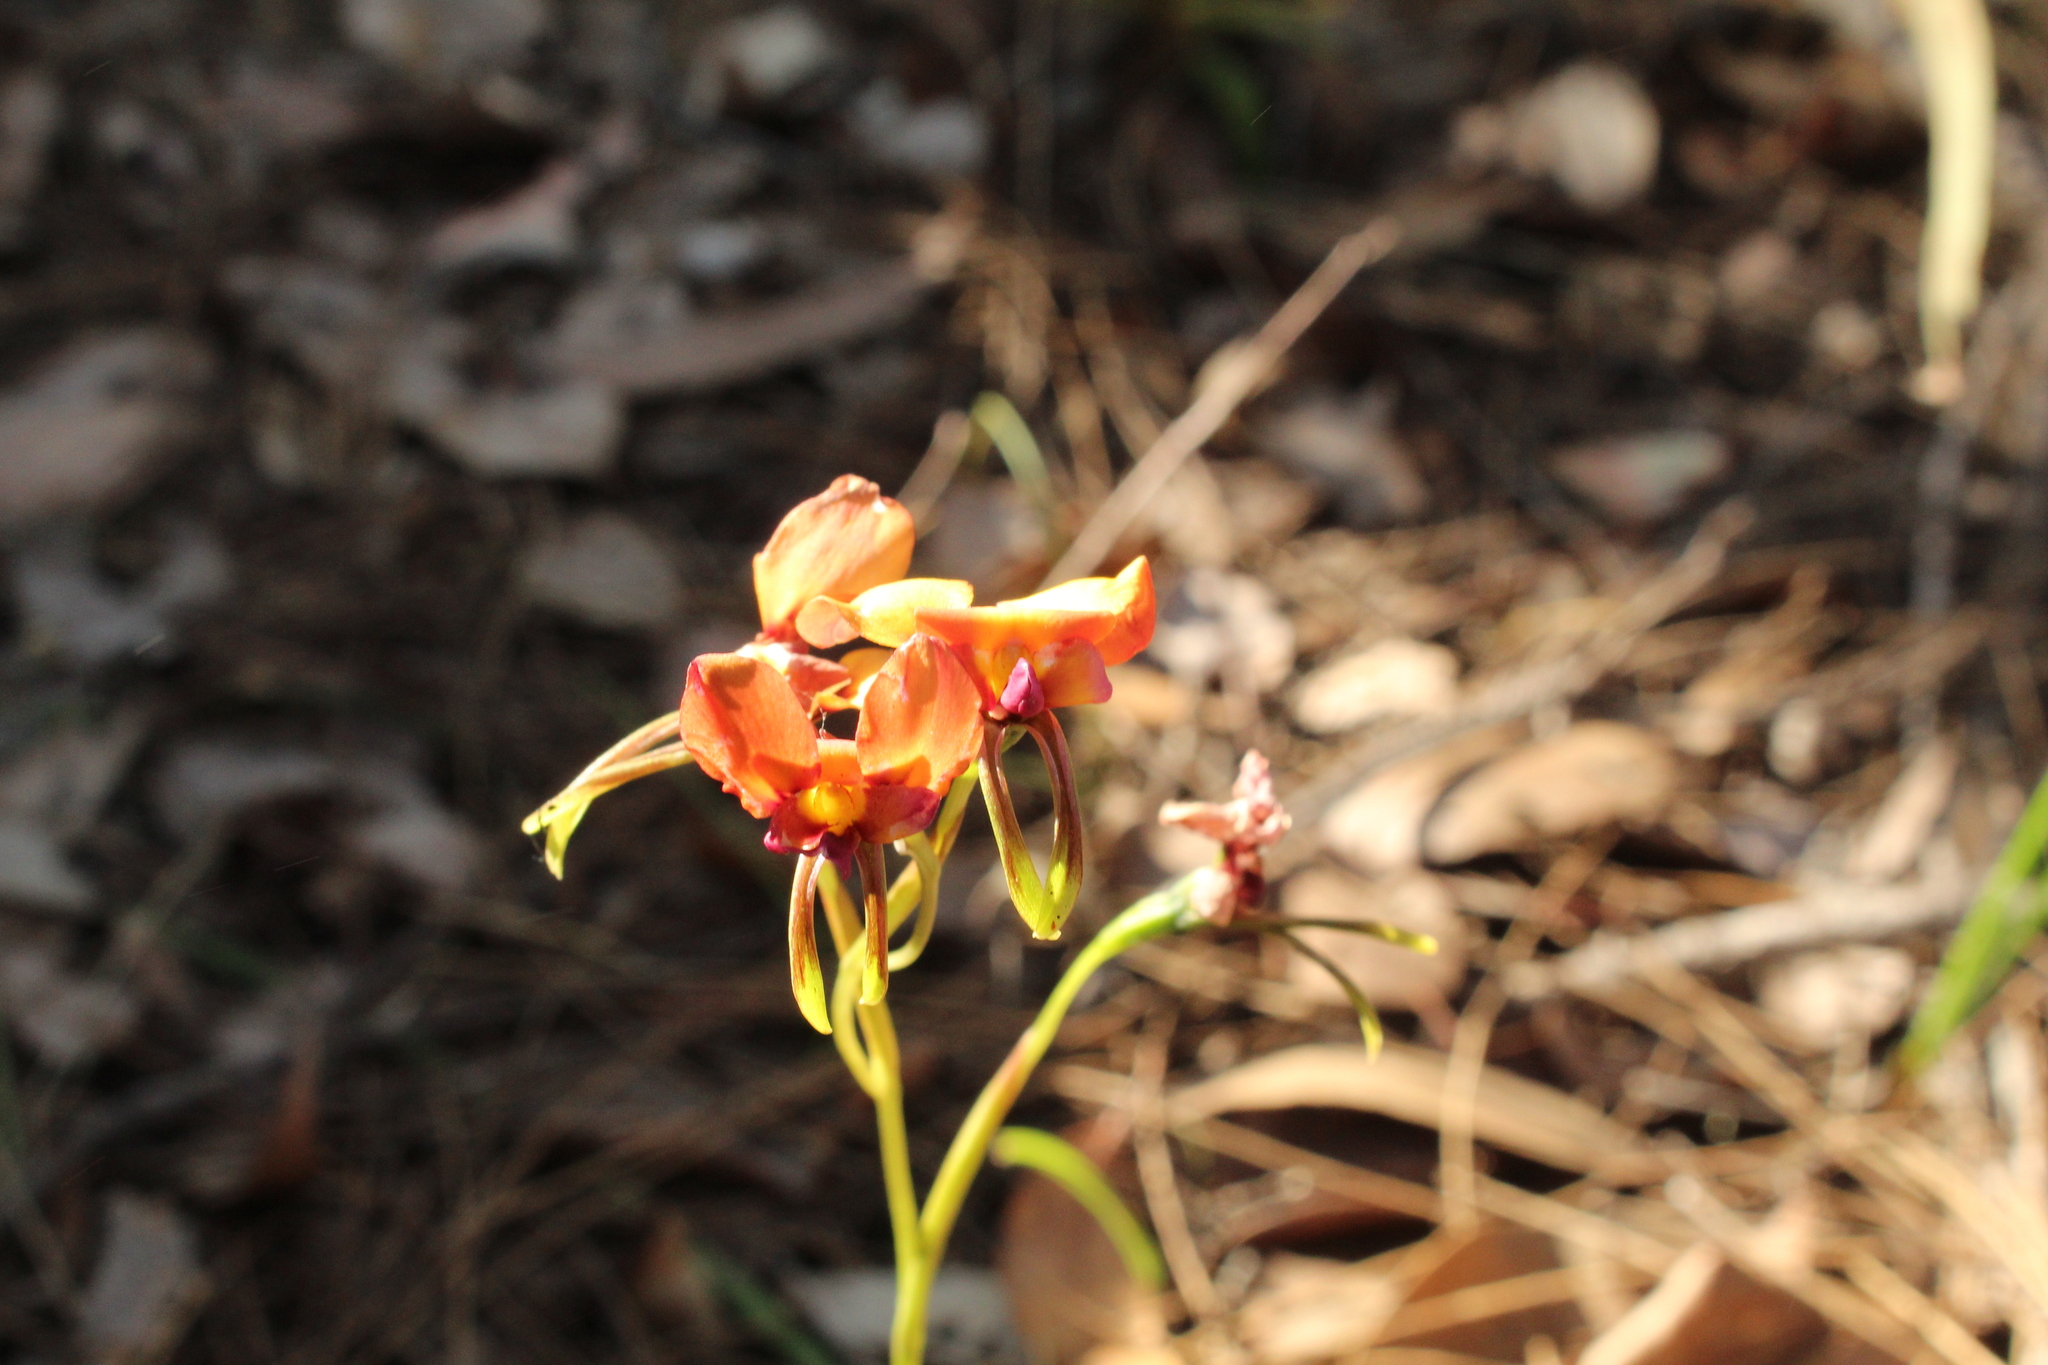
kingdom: Plantae
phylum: Tracheophyta
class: Liliopsida
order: Asparagales
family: Orchidaceae
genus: Diuris
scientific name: Diuris longifolia
